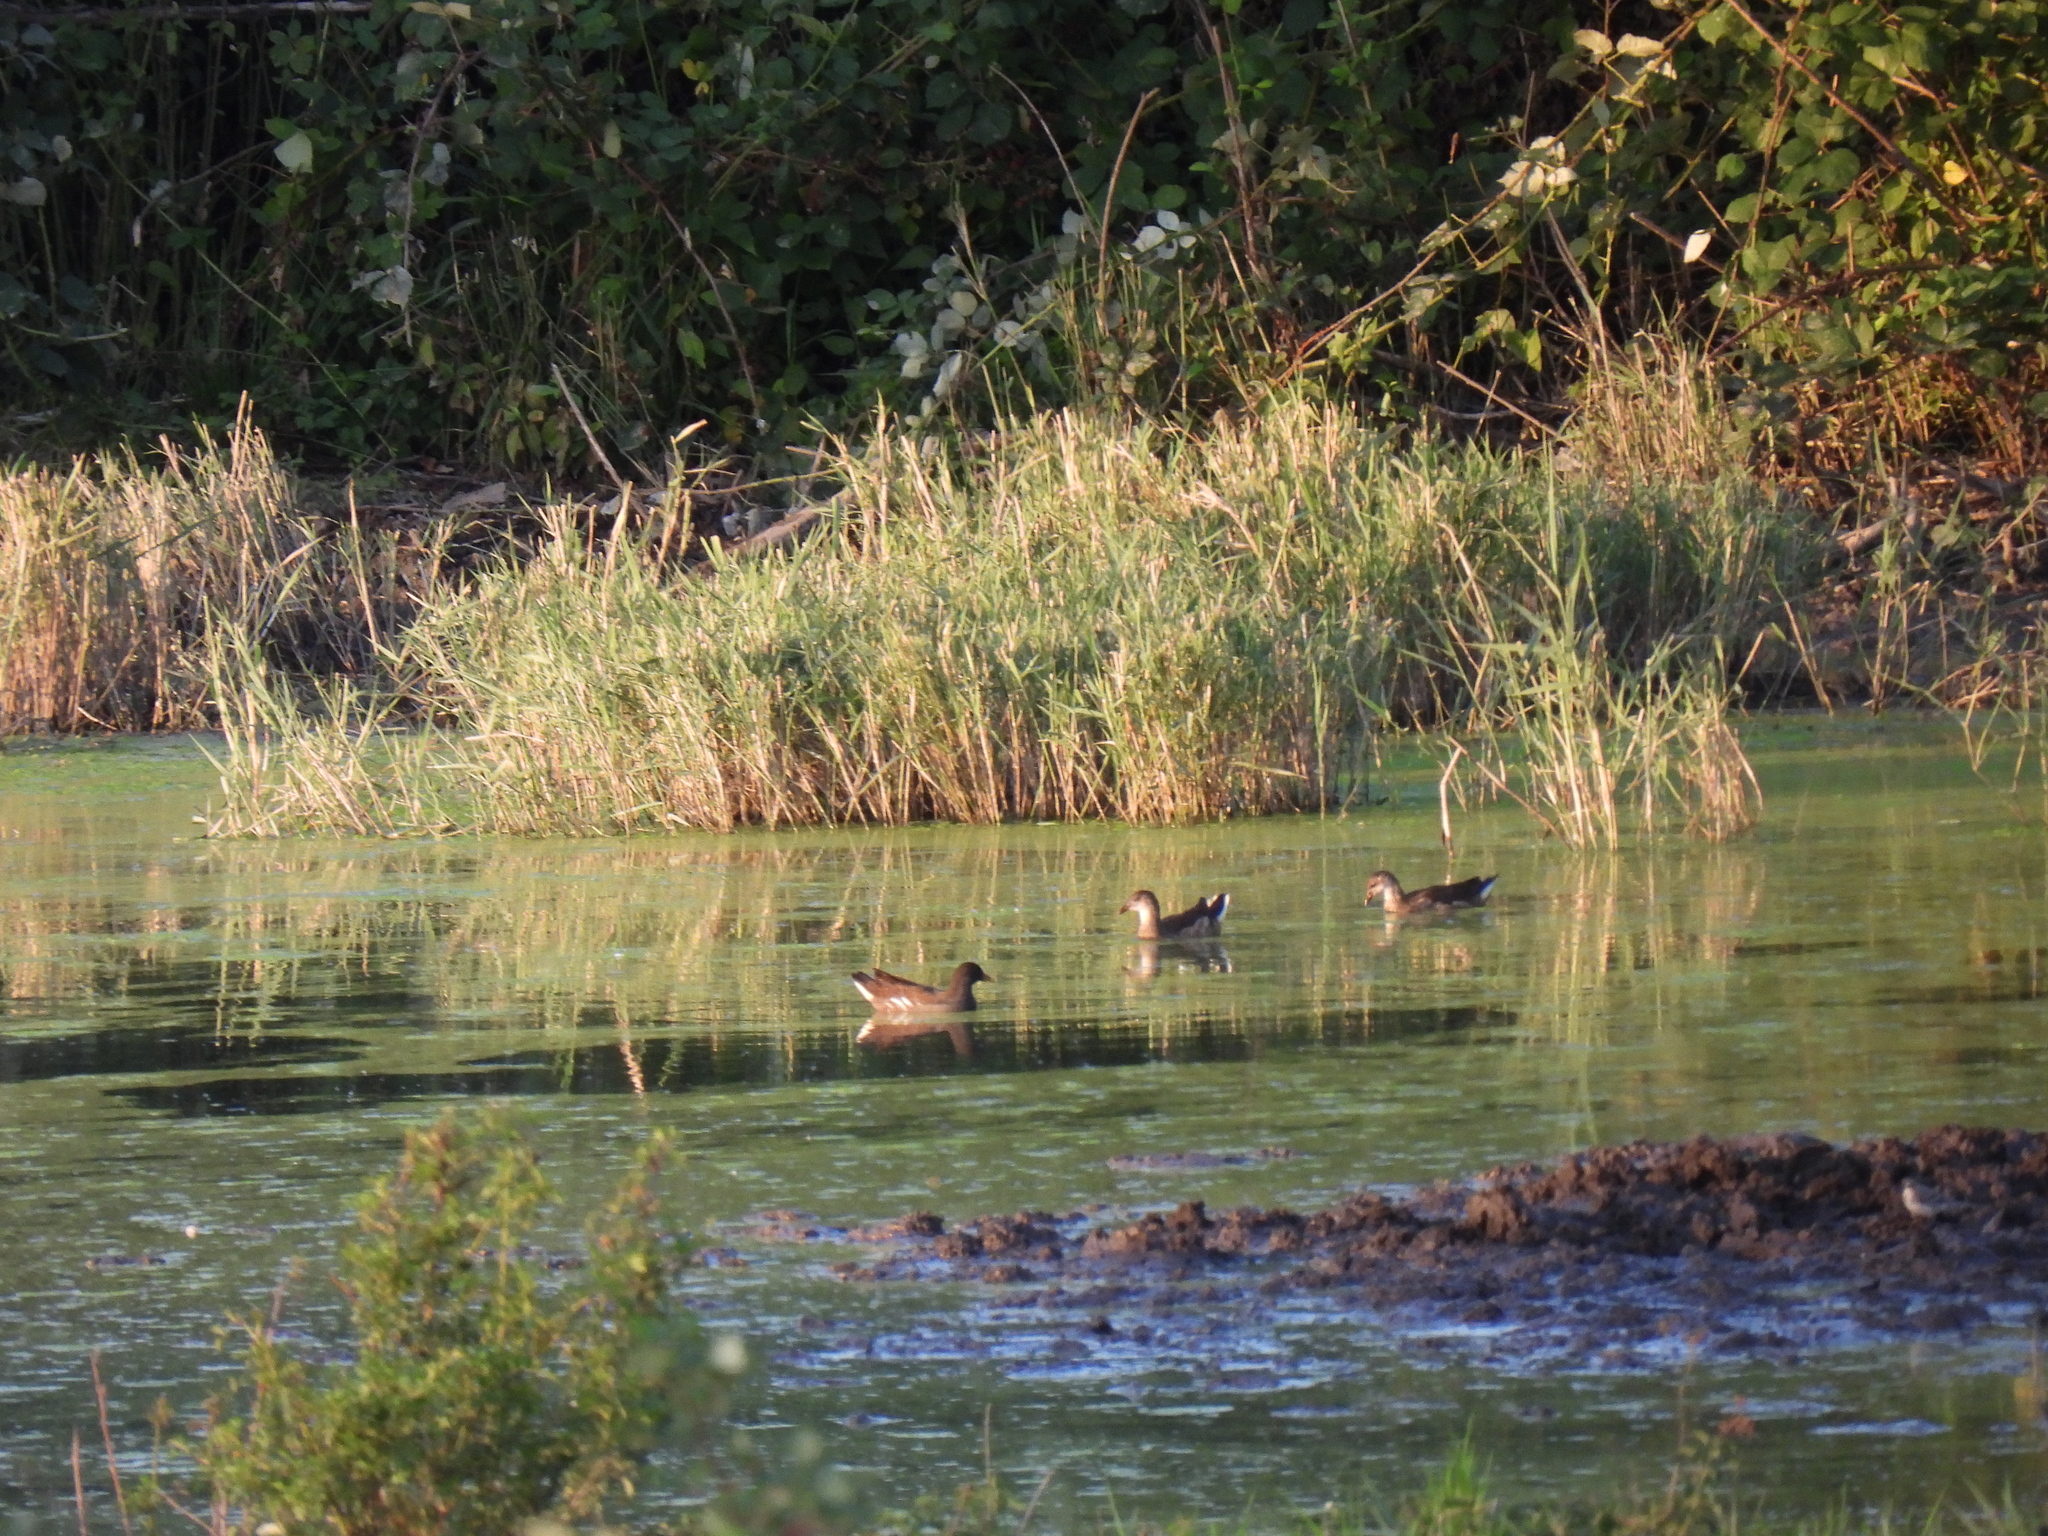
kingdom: Animalia
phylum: Chordata
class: Aves
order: Gruiformes
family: Rallidae
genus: Gallinula
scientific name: Gallinula chloropus
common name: Common moorhen
